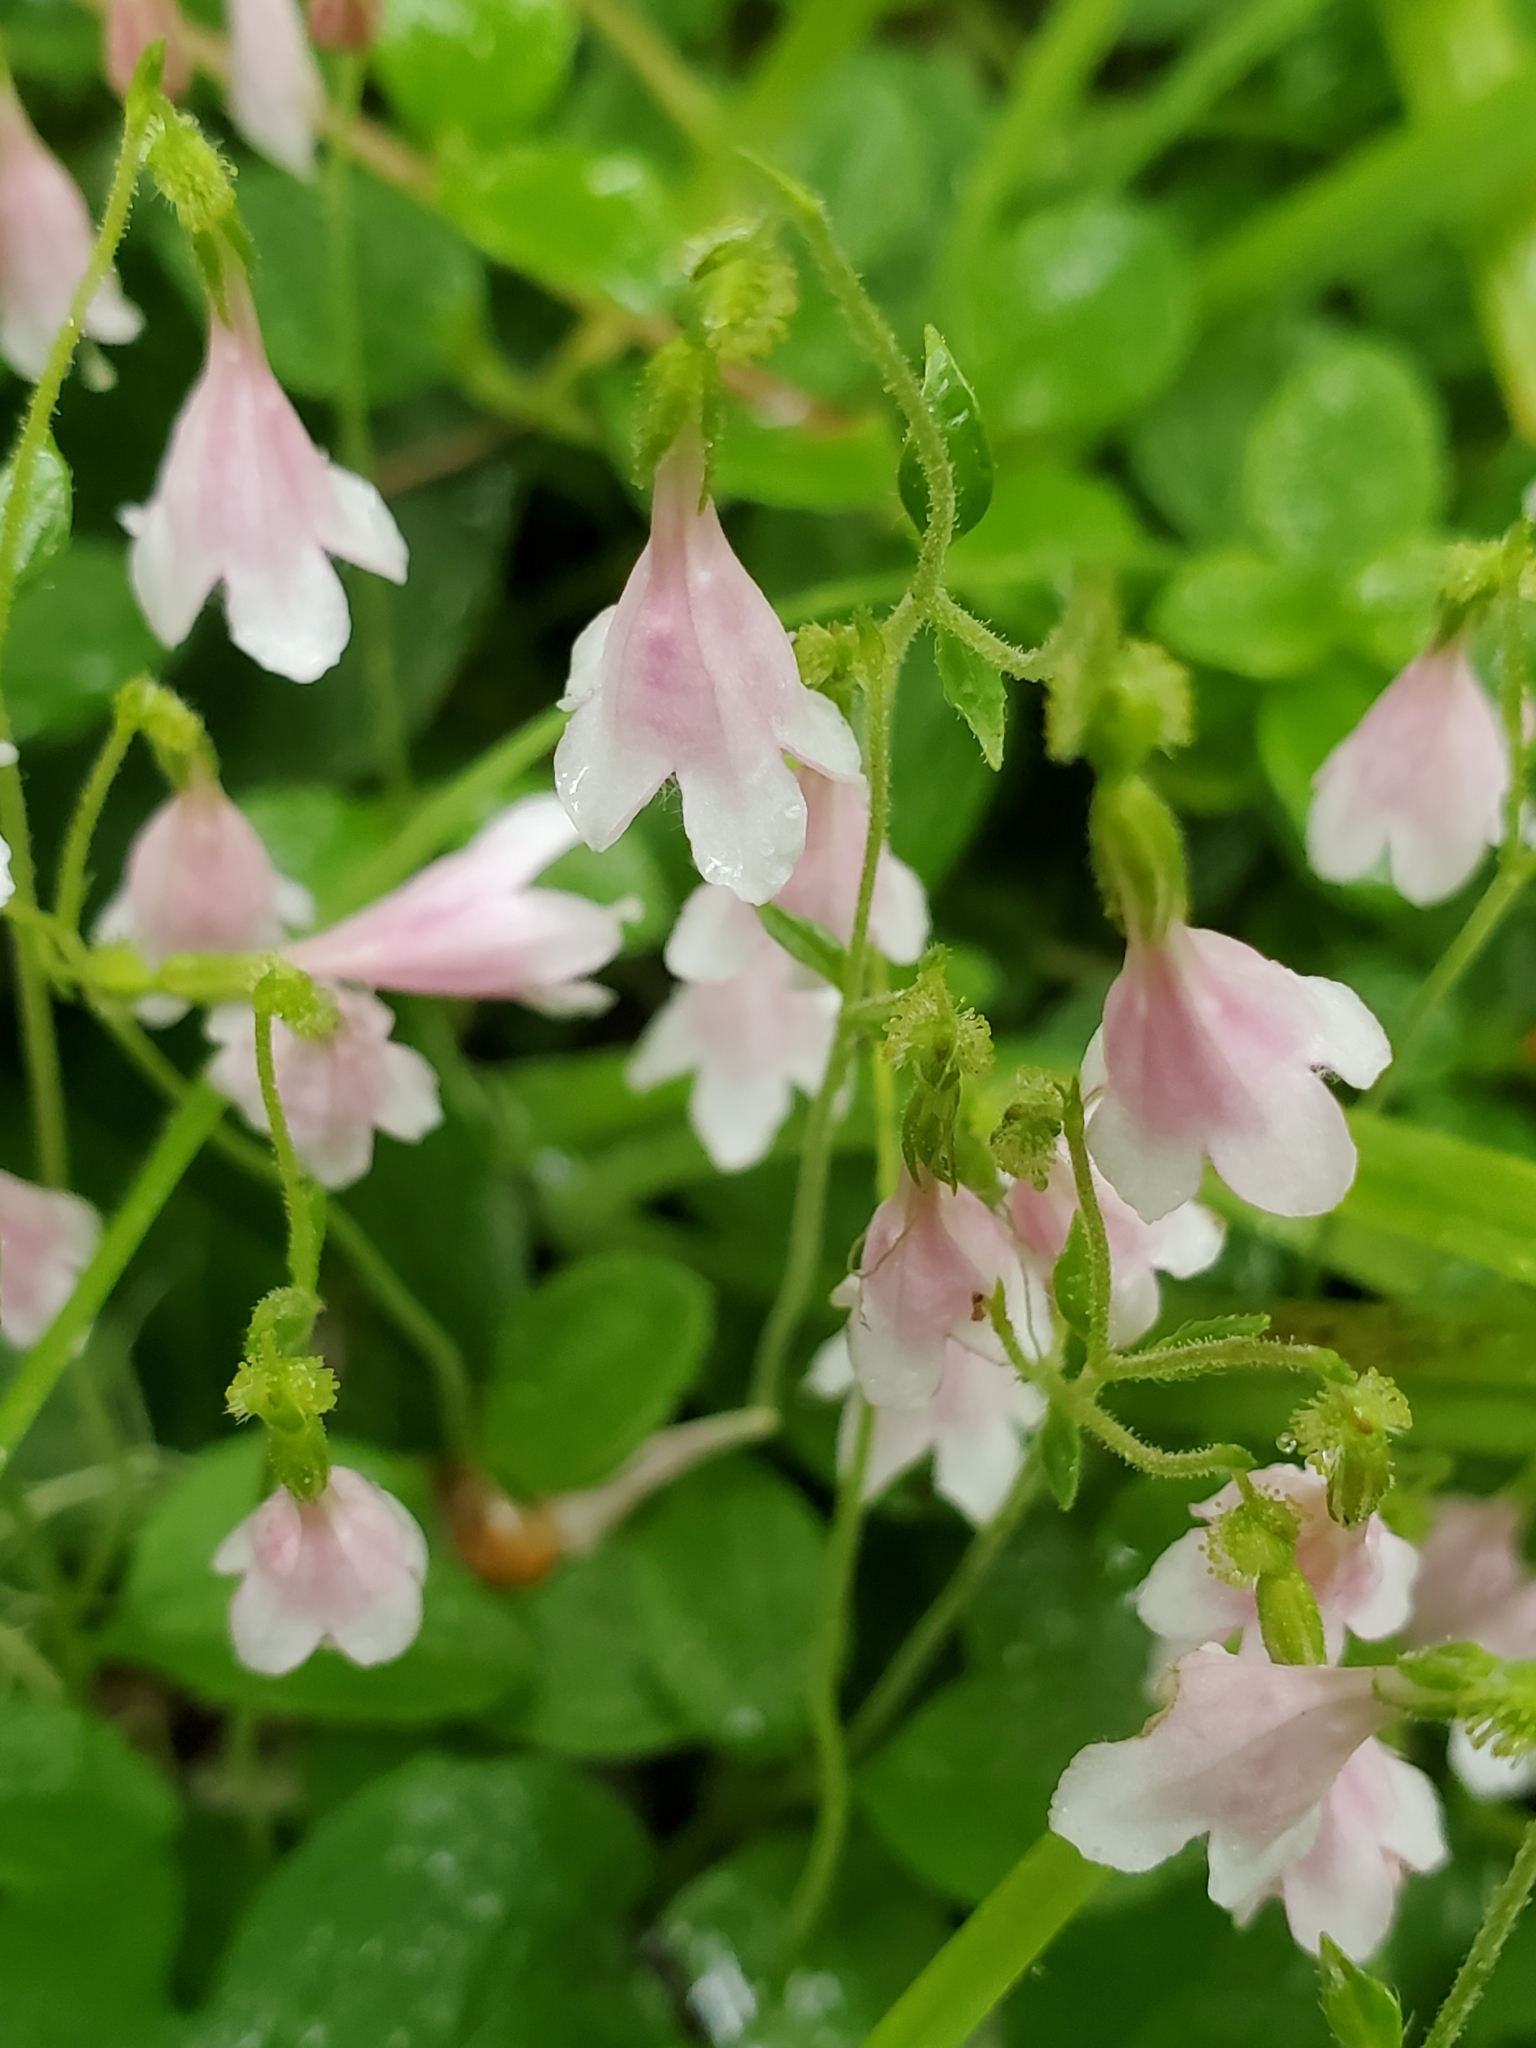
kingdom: Plantae
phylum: Tracheophyta
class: Magnoliopsida
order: Dipsacales
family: Caprifoliaceae
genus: Linnaea
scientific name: Linnaea borealis
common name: Twinflower
